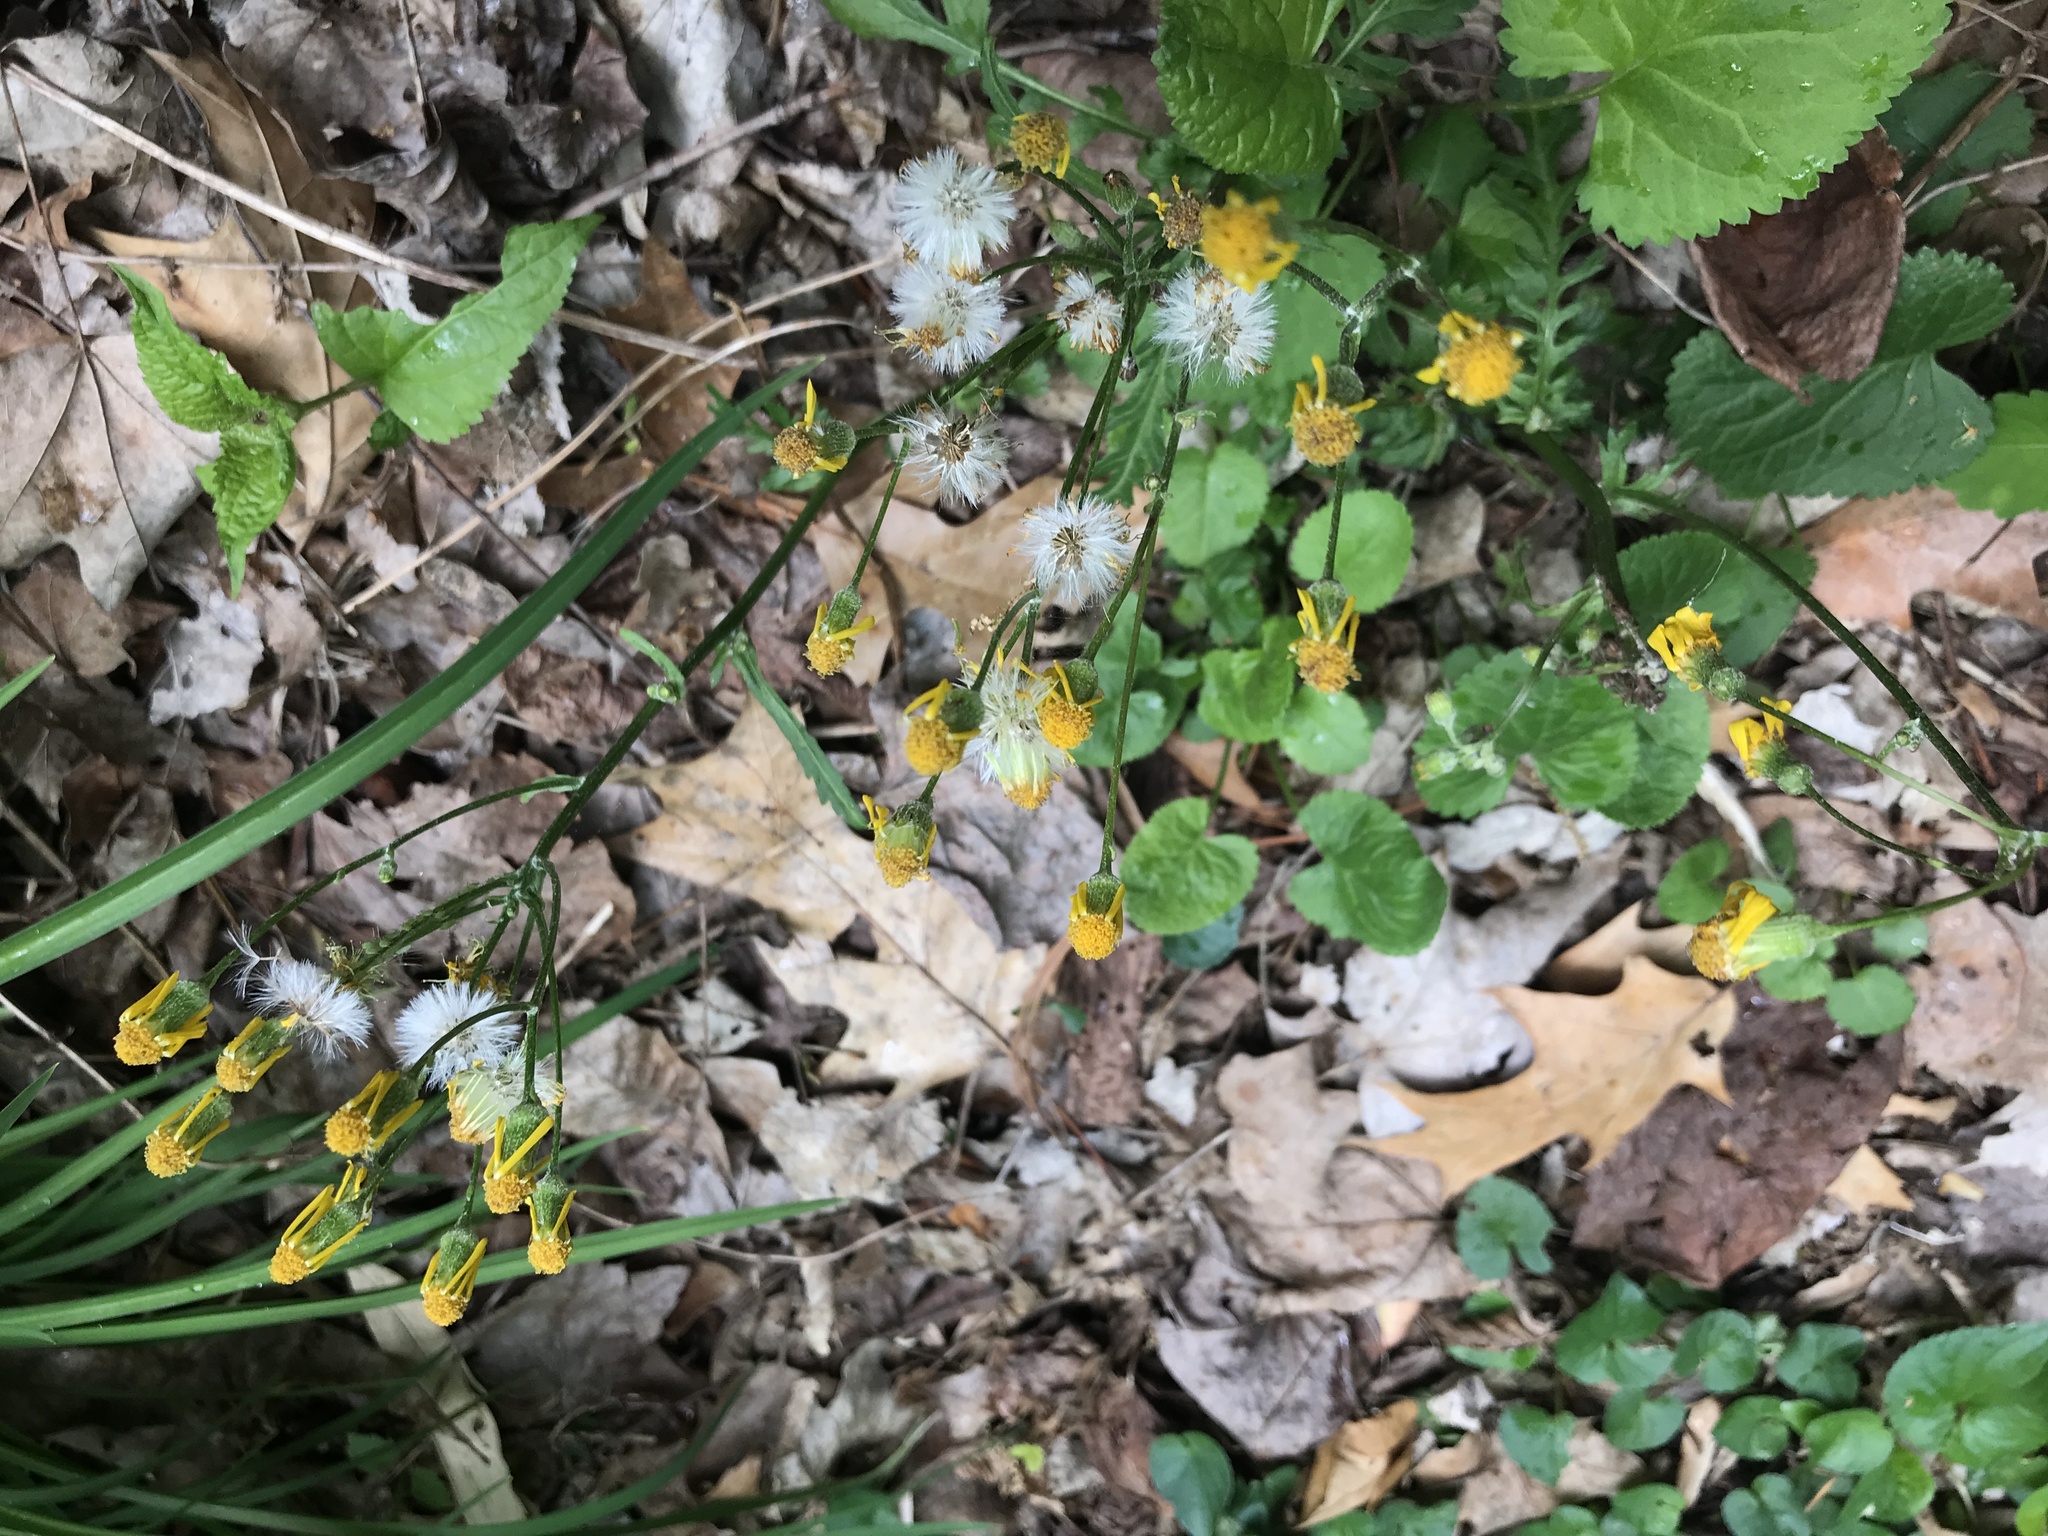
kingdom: Plantae
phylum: Tracheophyta
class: Magnoliopsida
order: Asterales
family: Asteraceae
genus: Packera
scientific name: Packera obovata
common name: Round-leaf ragwort
